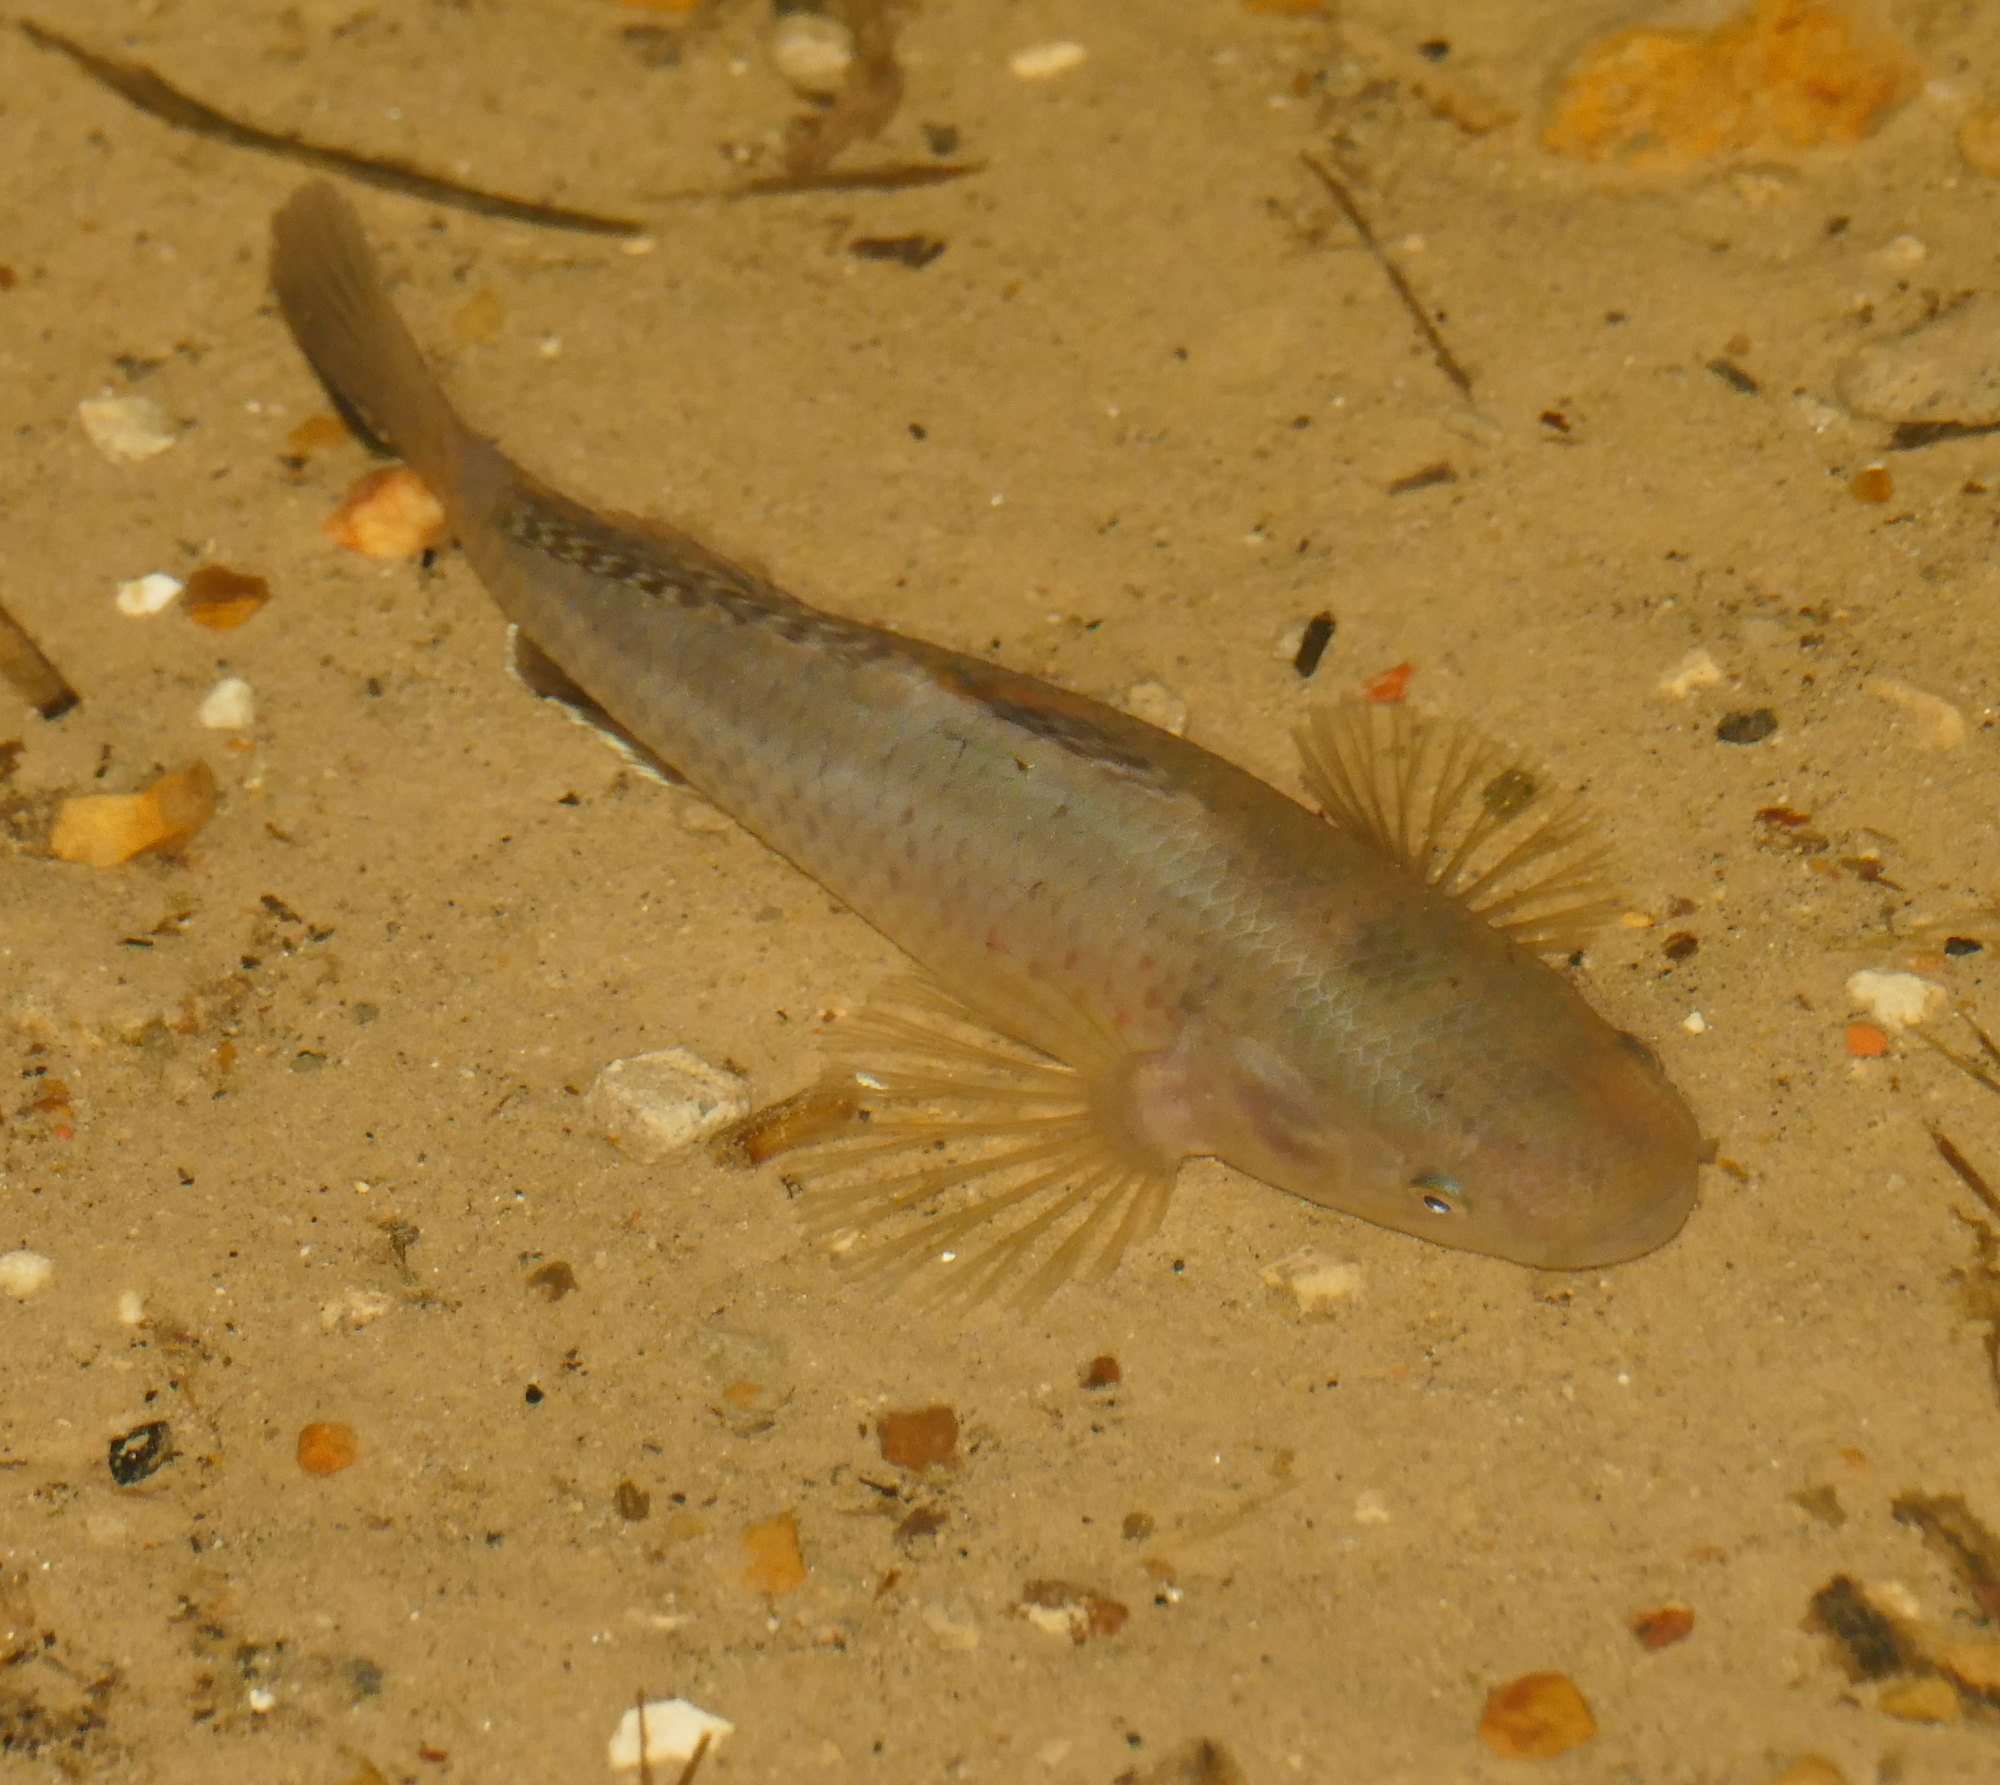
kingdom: Animalia
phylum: Chordata
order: Perciformes
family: Eleotridae
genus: Dormitator
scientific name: Dormitator maculatus
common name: Fat sleeper
